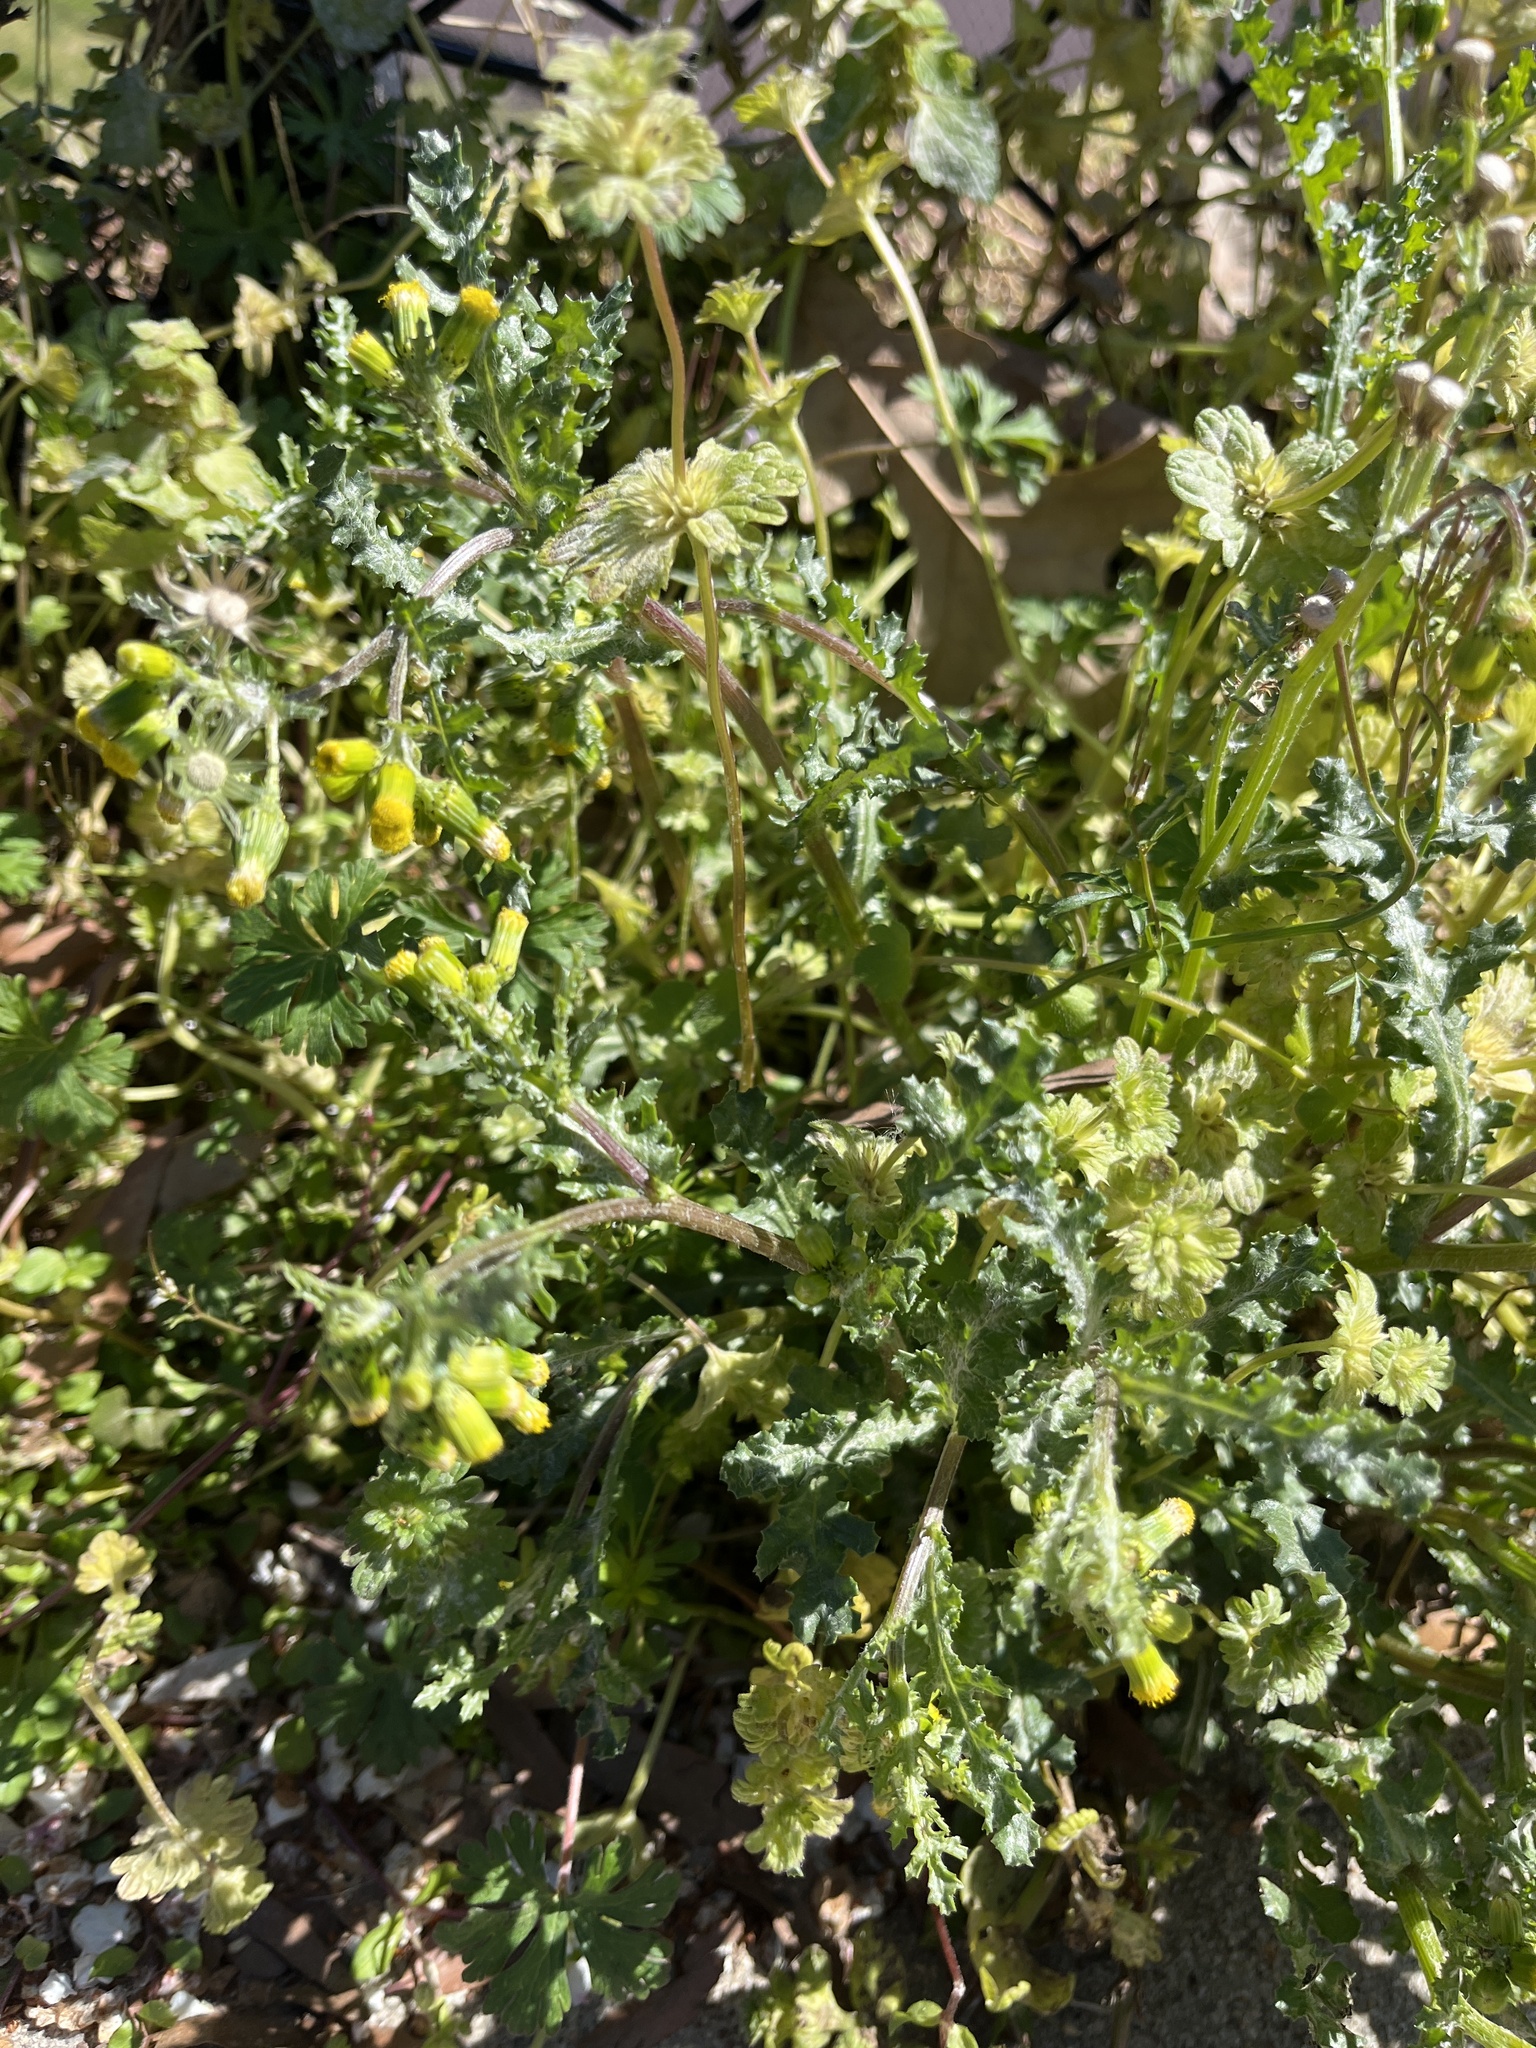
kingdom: Plantae
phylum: Tracheophyta
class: Magnoliopsida
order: Asterales
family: Asteraceae
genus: Senecio
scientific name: Senecio vulgaris
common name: Old-man-in-the-spring
